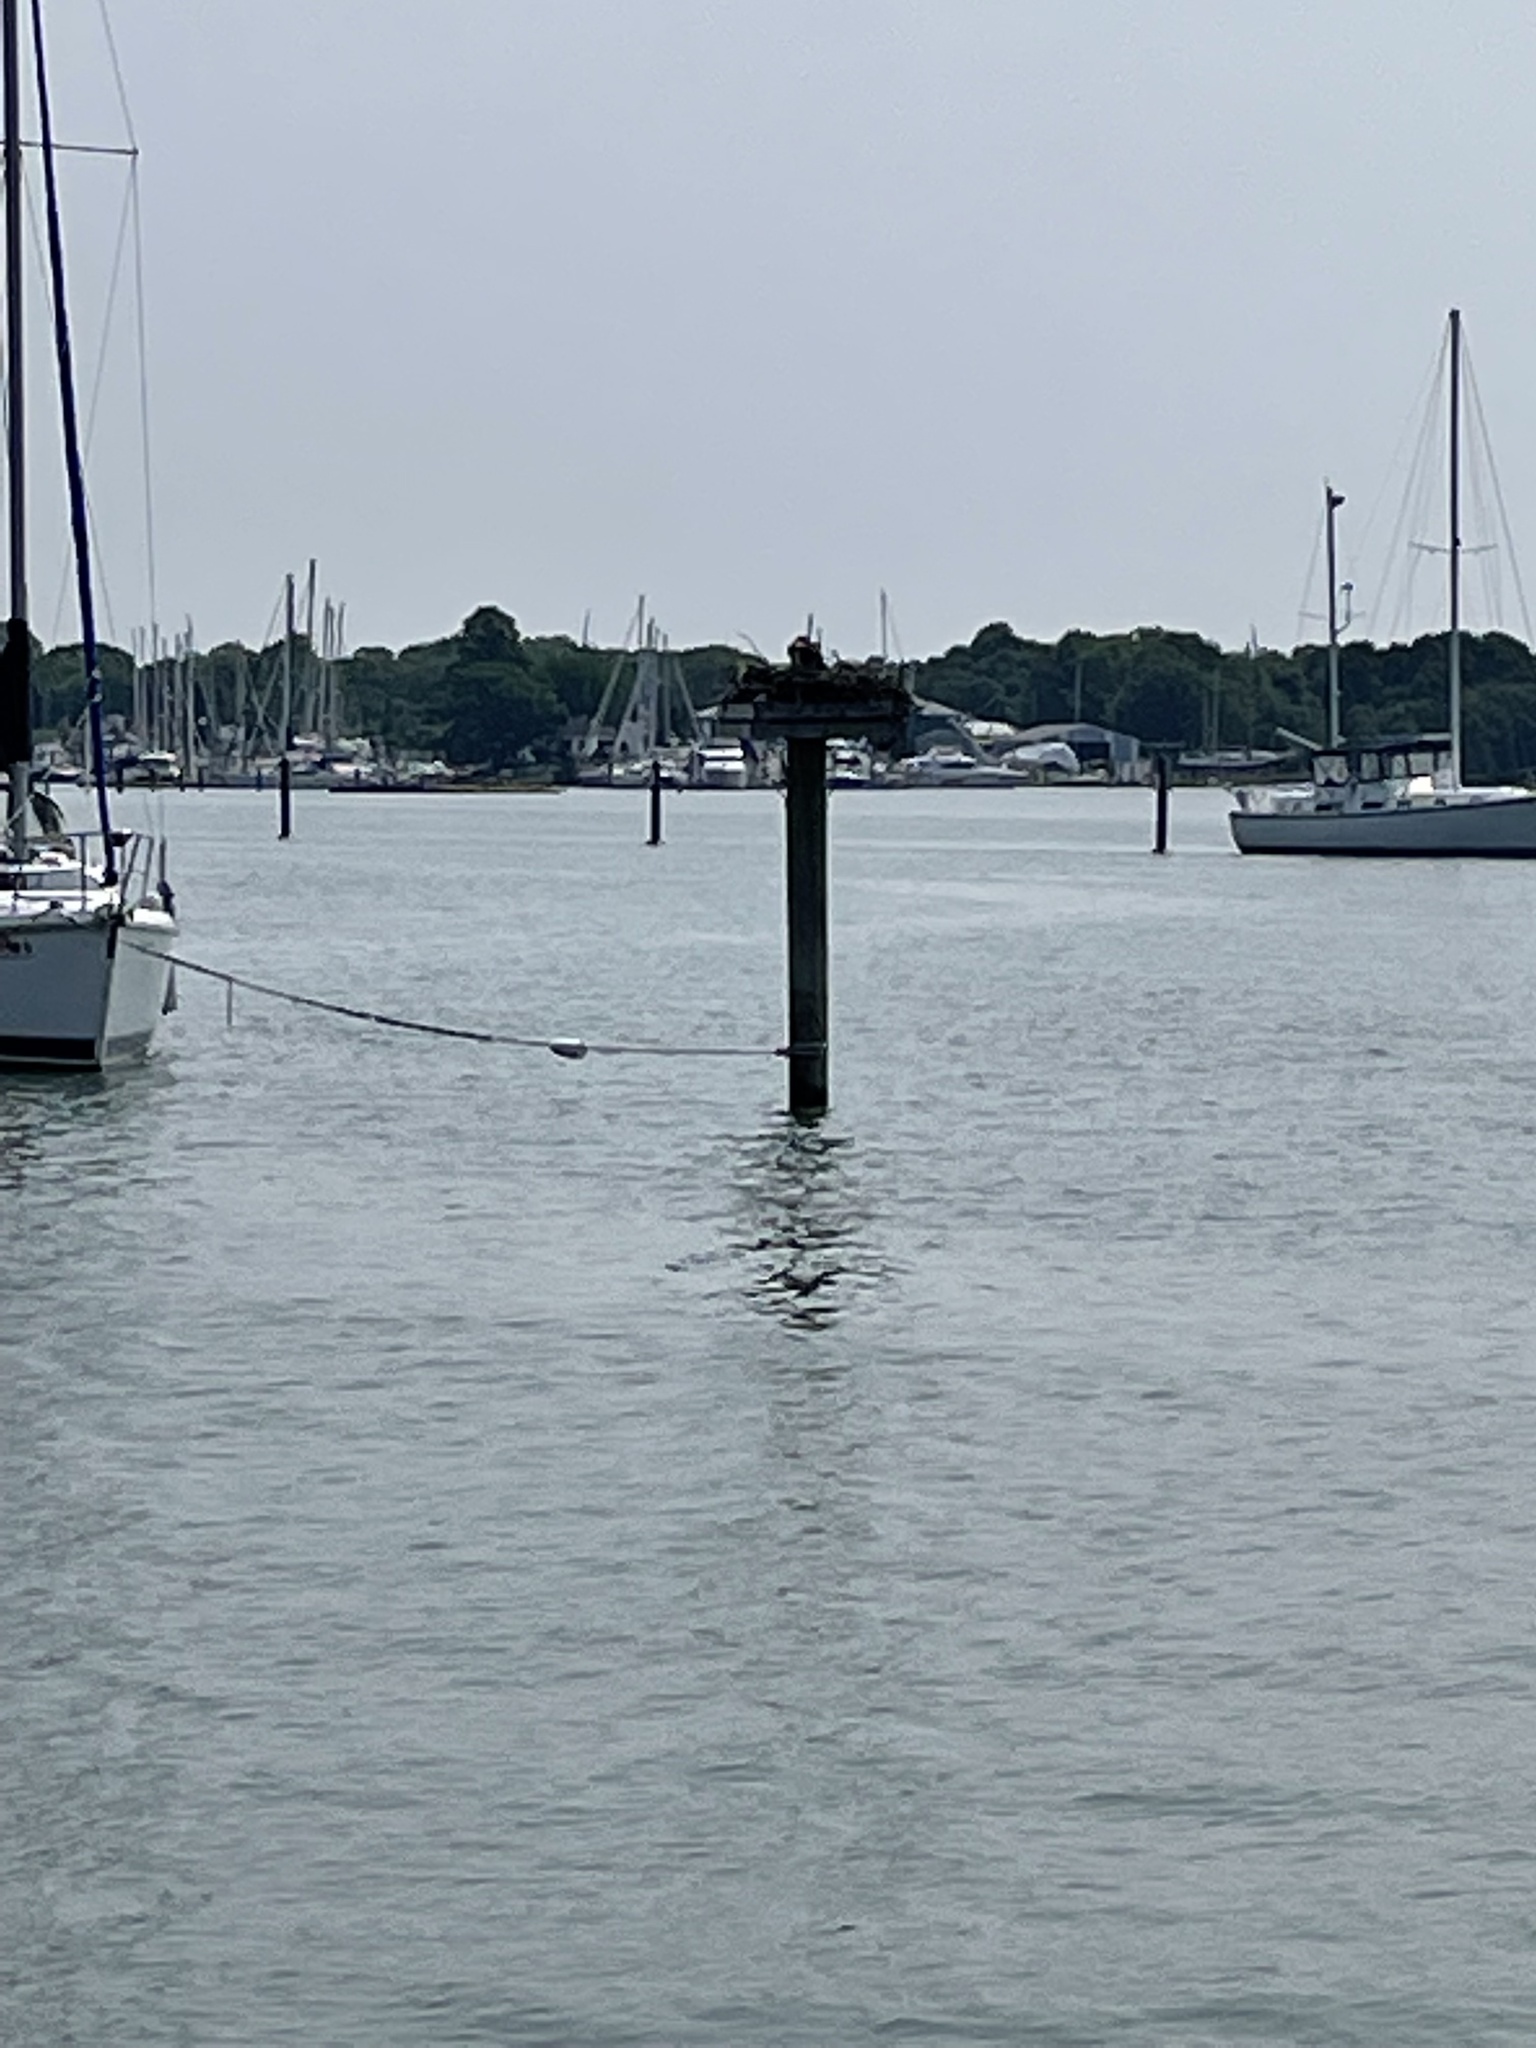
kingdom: Animalia
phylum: Chordata
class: Aves
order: Accipitriformes
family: Pandionidae
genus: Pandion
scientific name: Pandion haliaetus
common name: Osprey
